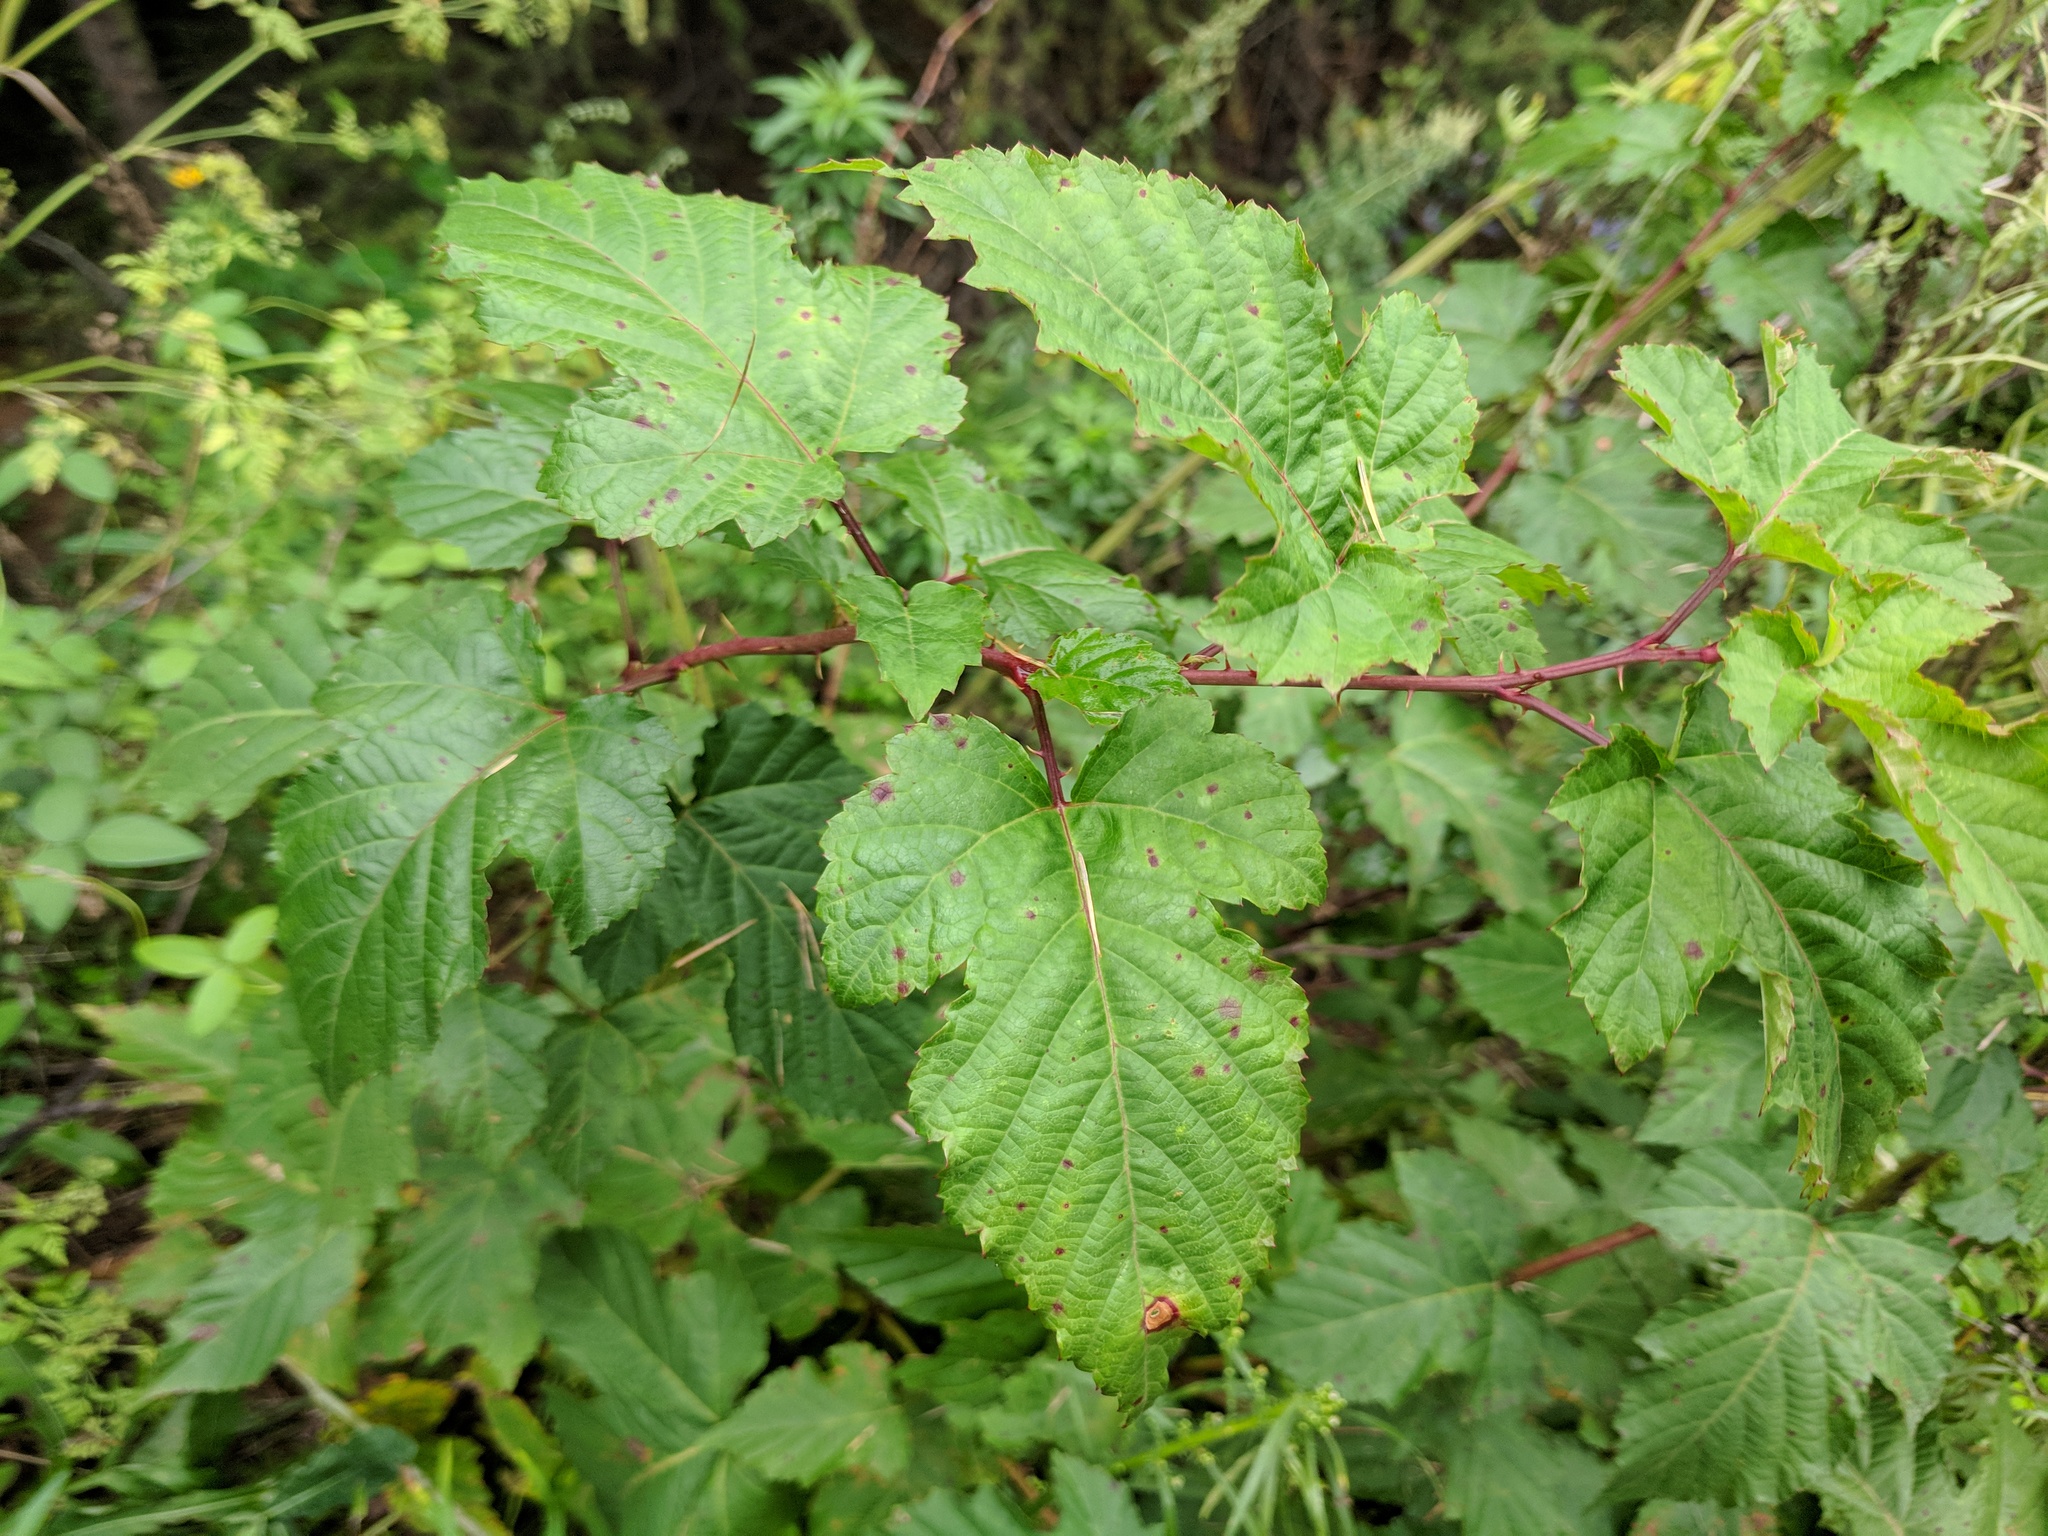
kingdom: Plantae
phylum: Tracheophyta
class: Magnoliopsida
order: Rosales
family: Rosaceae
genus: Rubus
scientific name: Rubus crataegifolius
